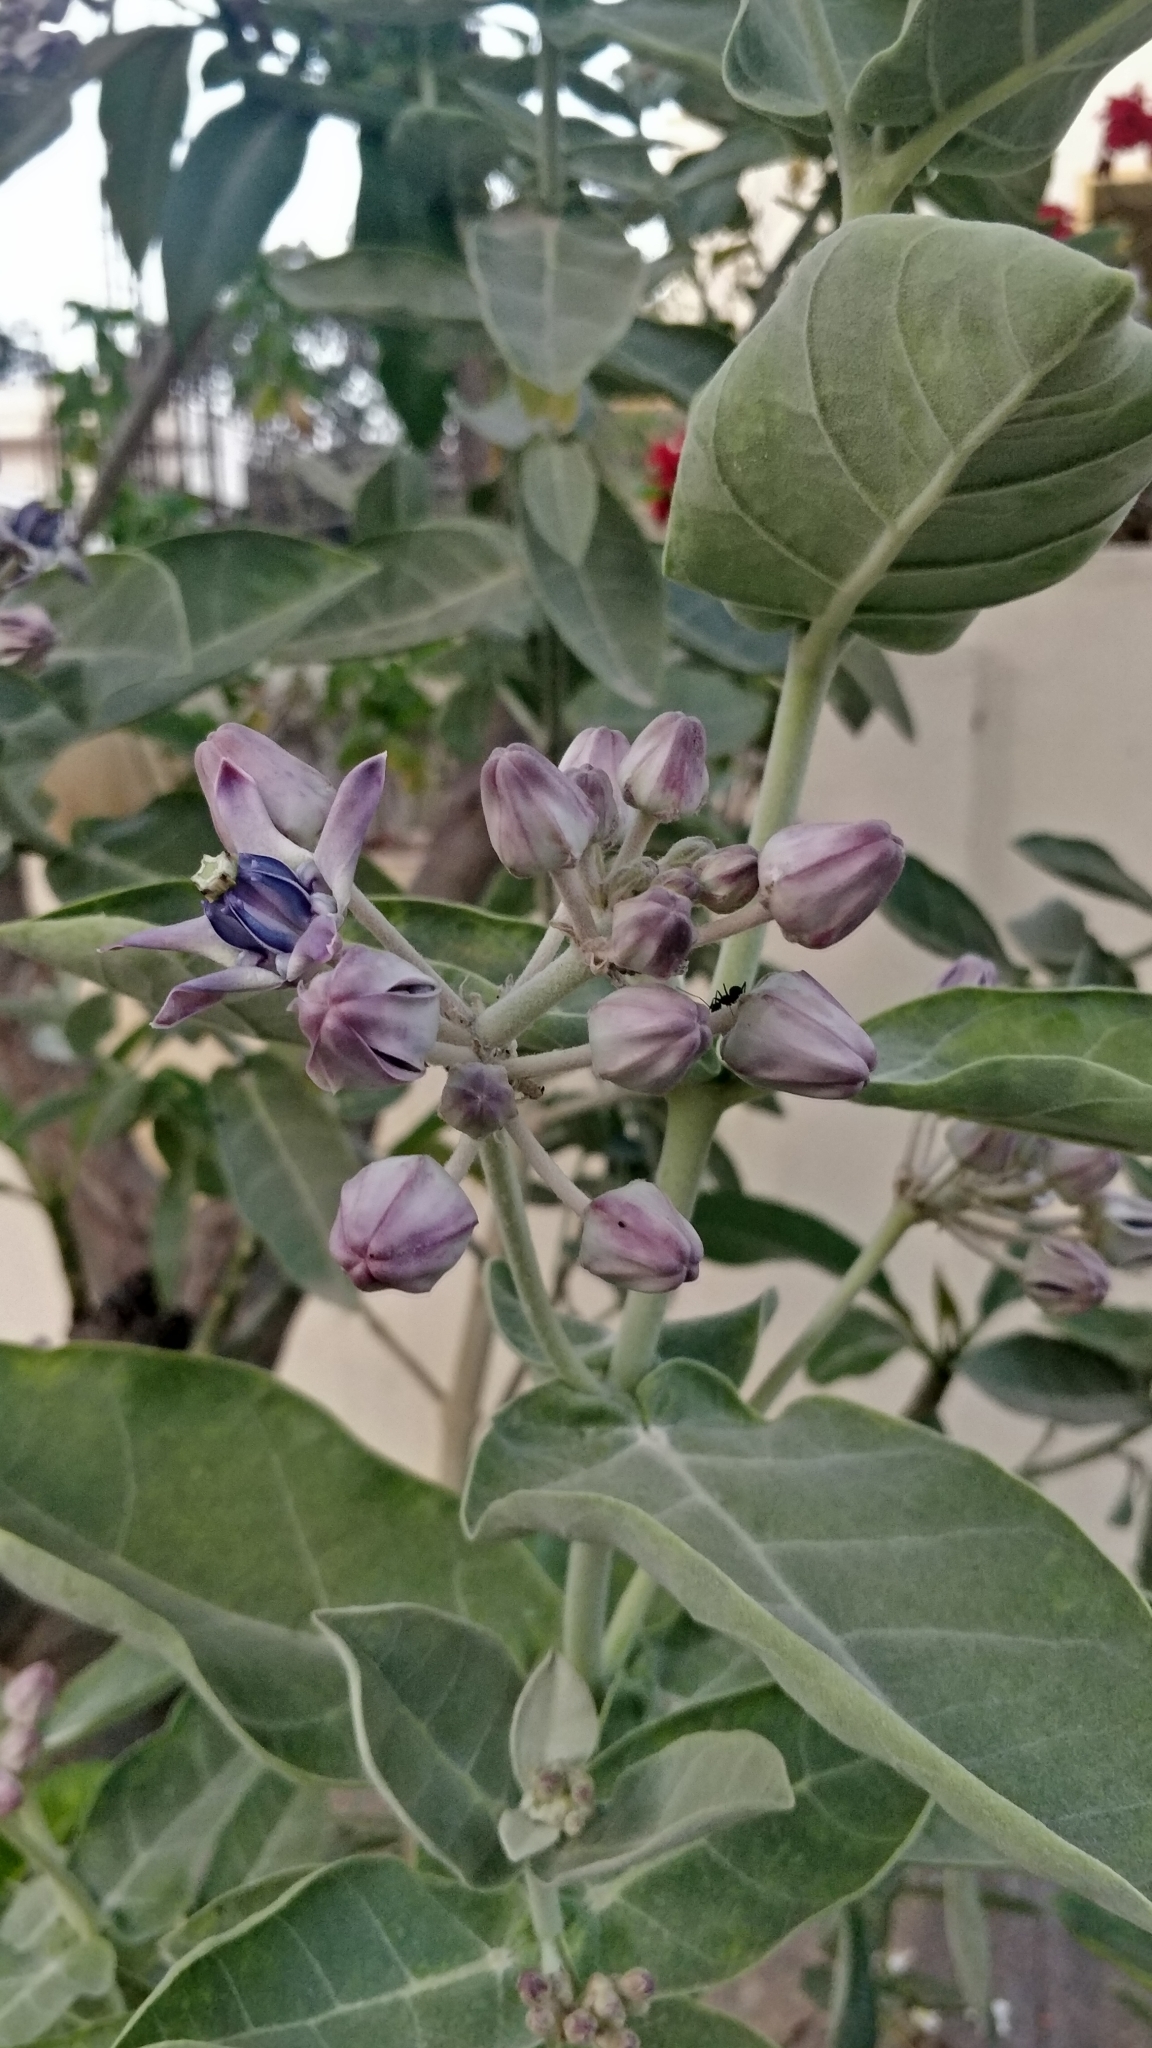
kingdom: Plantae
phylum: Tracheophyta
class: Magnoliopsida
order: Gentianales
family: Apocynaceae
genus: Calotropis
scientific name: Calotropis gigantea
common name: Crown flower
